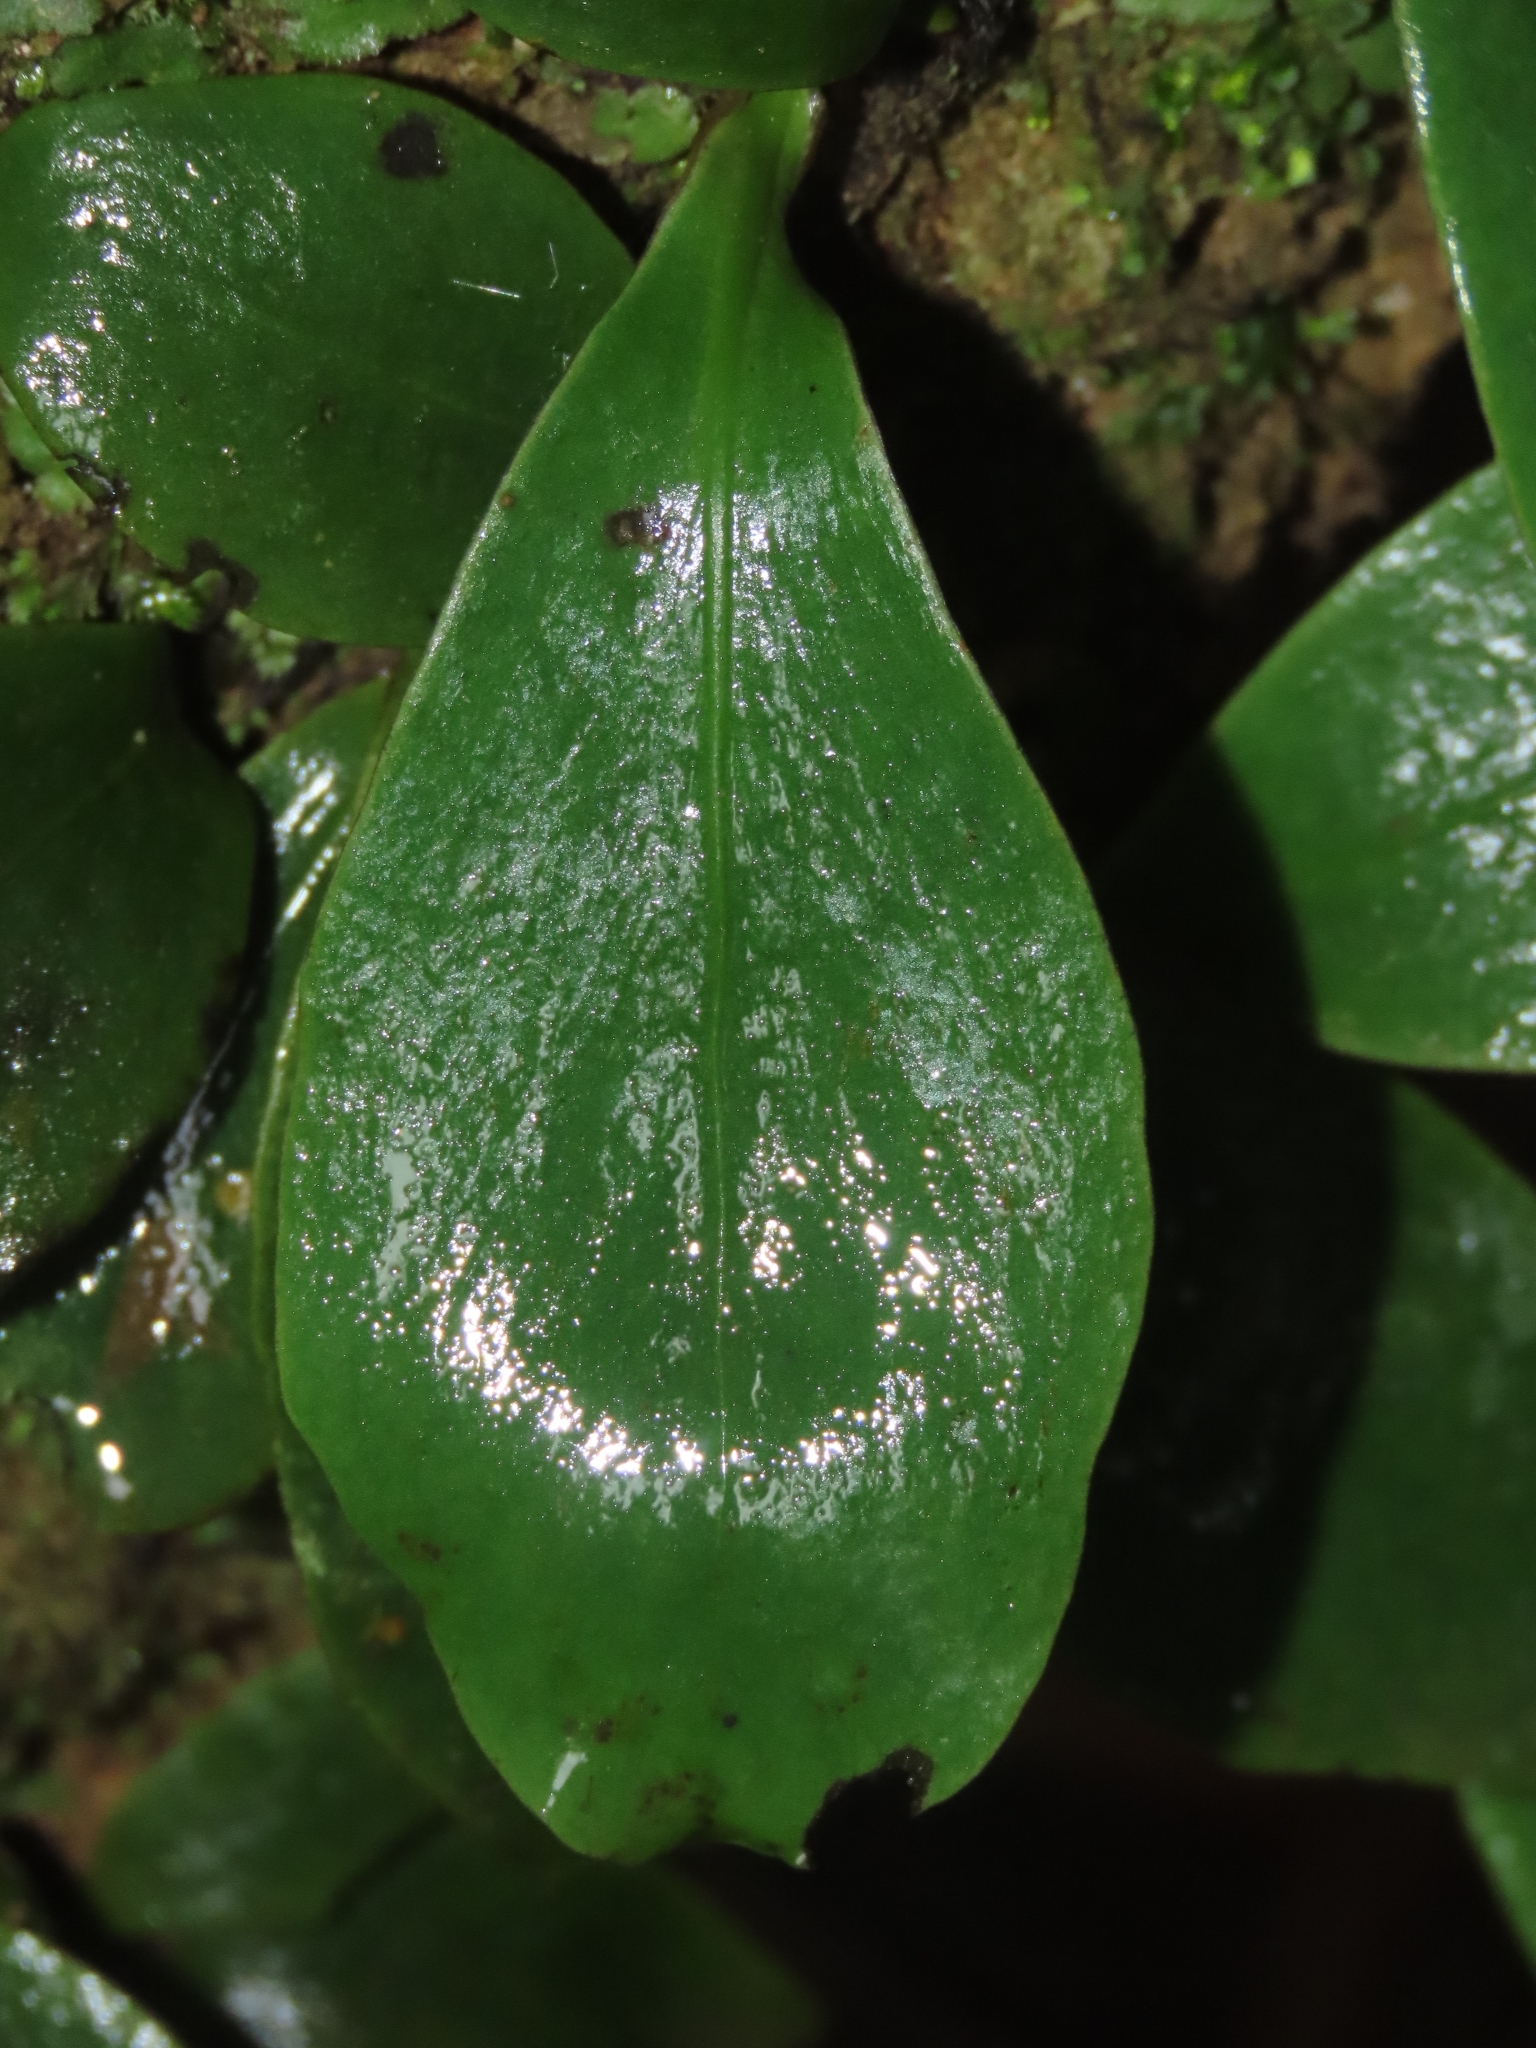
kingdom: Plantae
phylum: Tracheophyta
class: Polypodiopsida
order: Polypodiales
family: Polypodiaceae
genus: Loxogramme
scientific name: Loxogramme biformis
